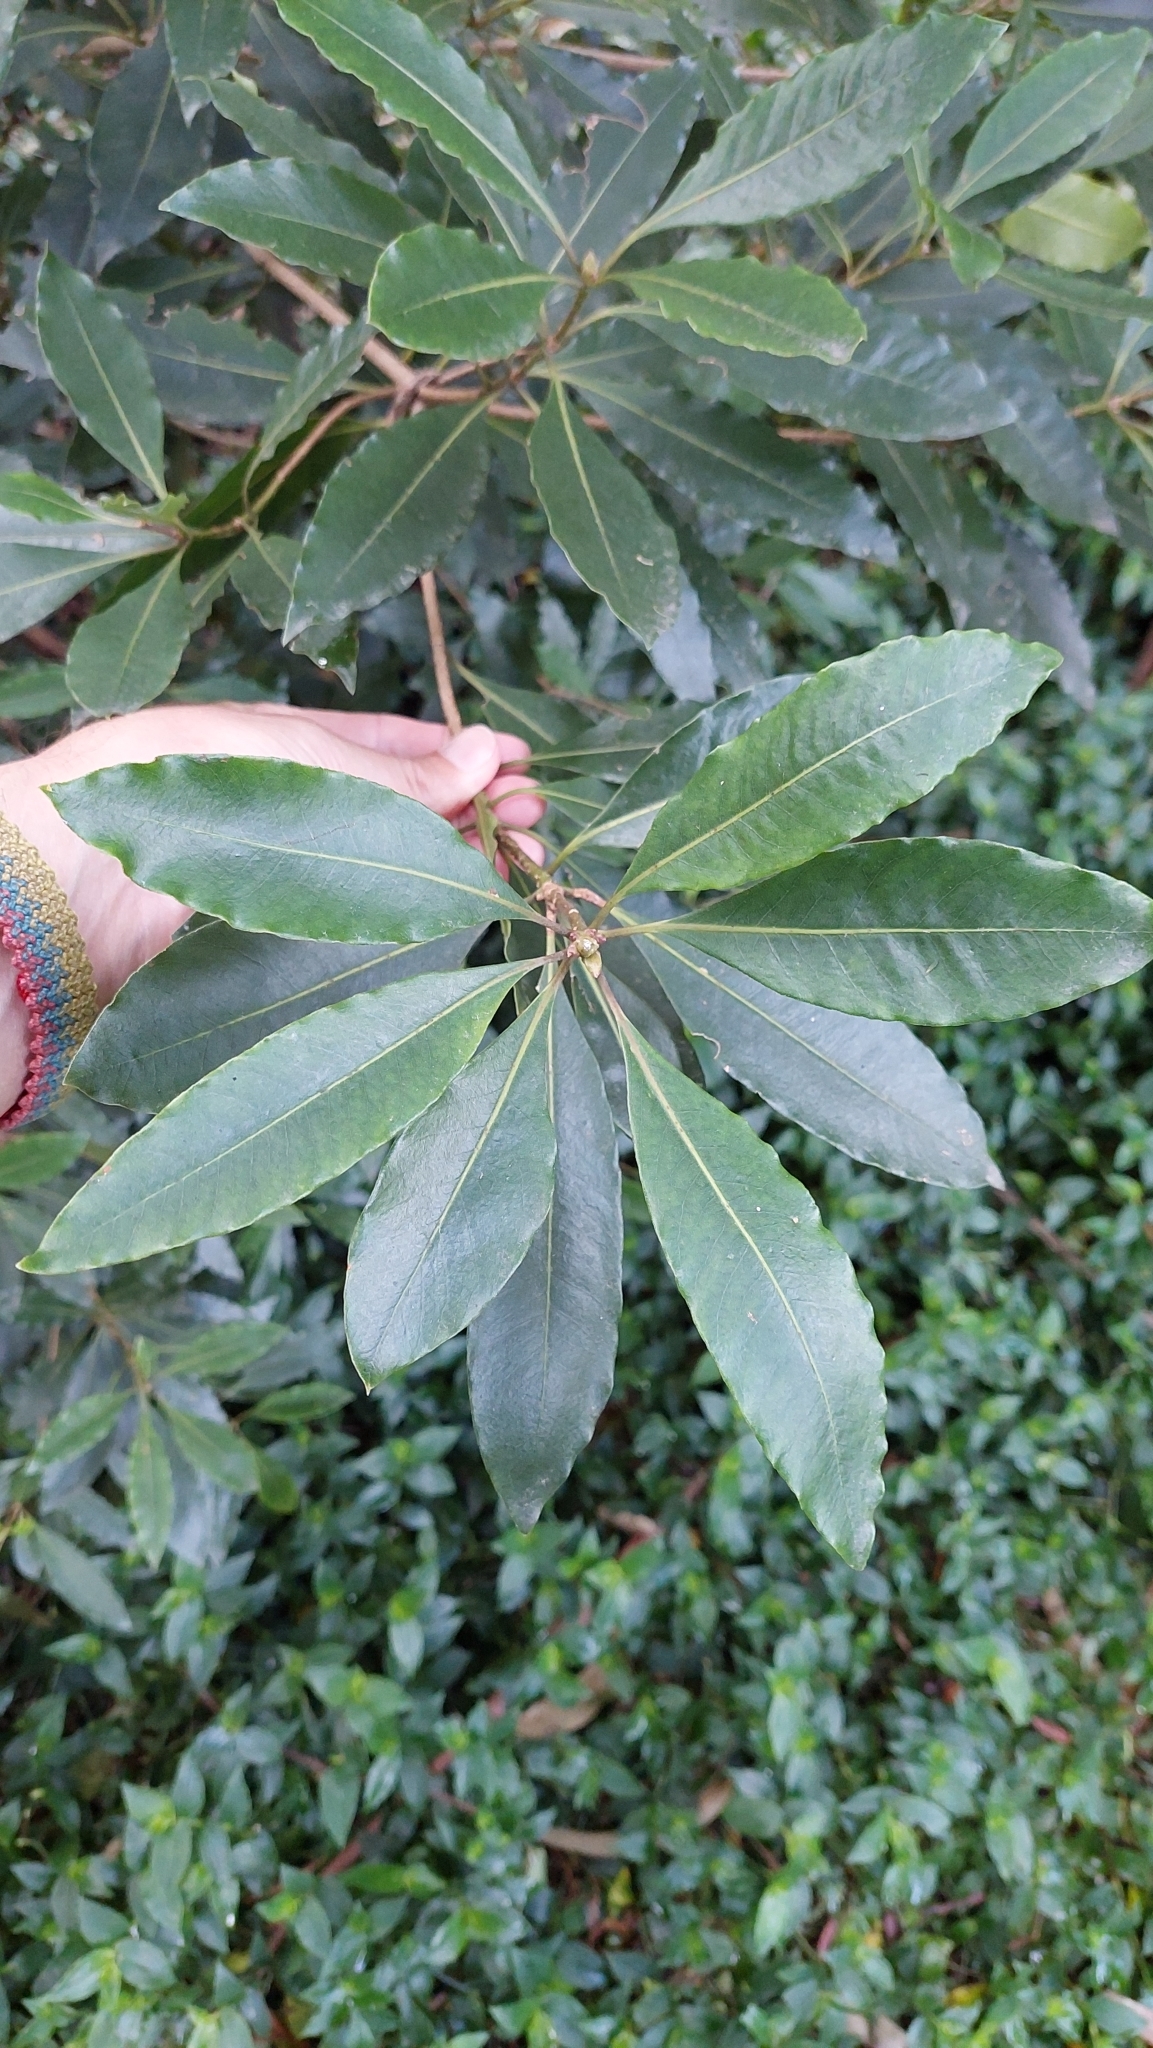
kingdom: Plantae
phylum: Tracheophyta
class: Magnoliopsida
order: Apiales
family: Pittosporaceae
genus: Pittosporum
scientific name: Pittosporum undulatum
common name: Australian cheesewood
